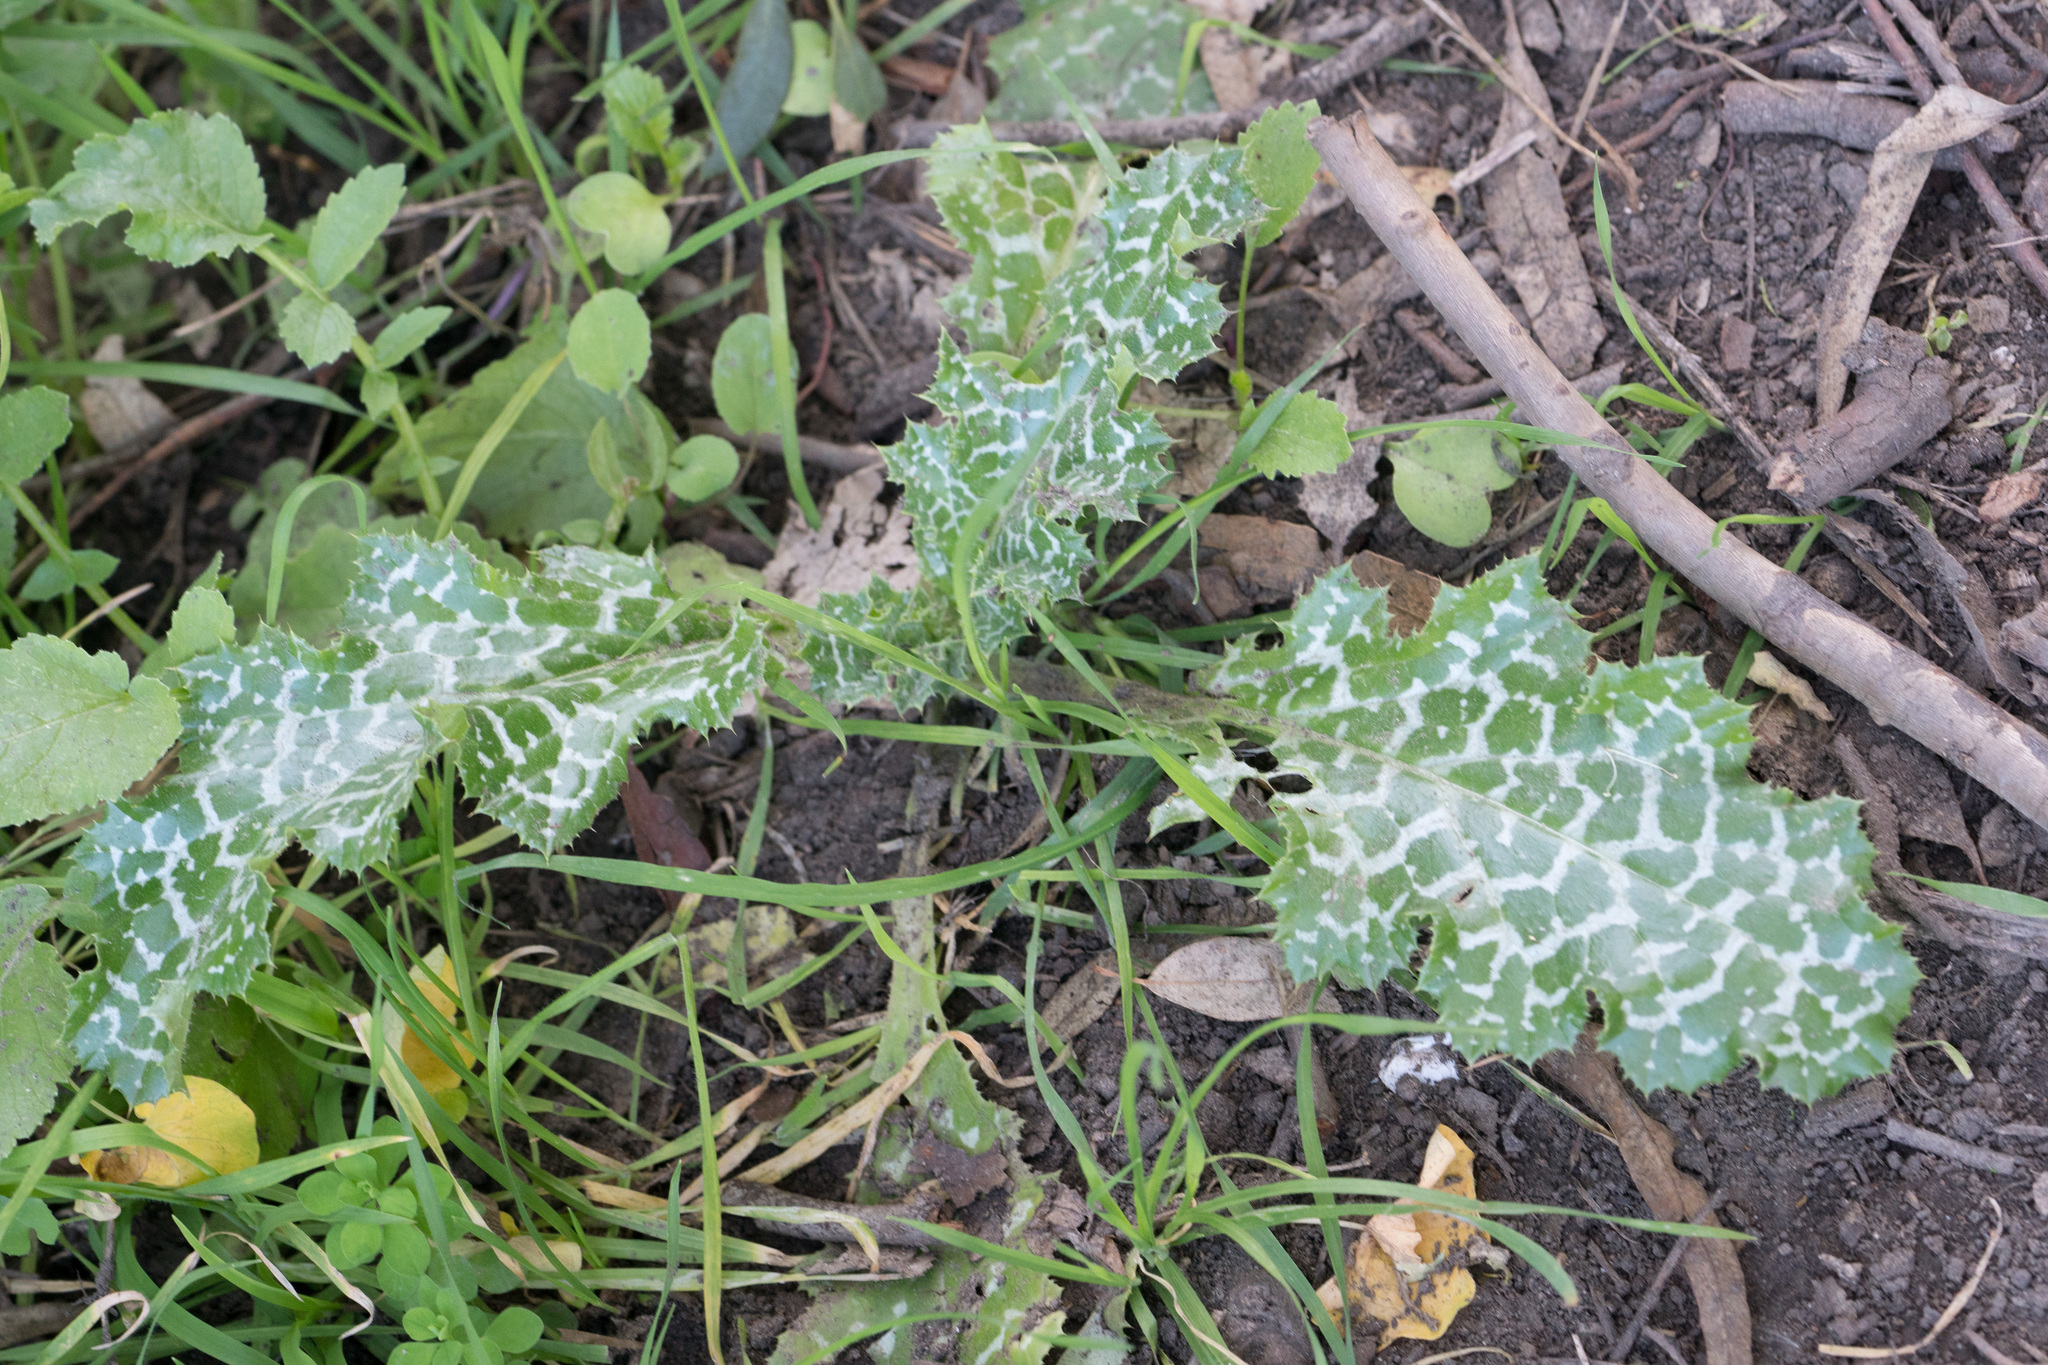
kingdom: Plantae
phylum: Tracheophyta
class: Magnoliopsida
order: Asterales
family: Asteraceae
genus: Silybum
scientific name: Silybum marianum
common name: Milk thistle
